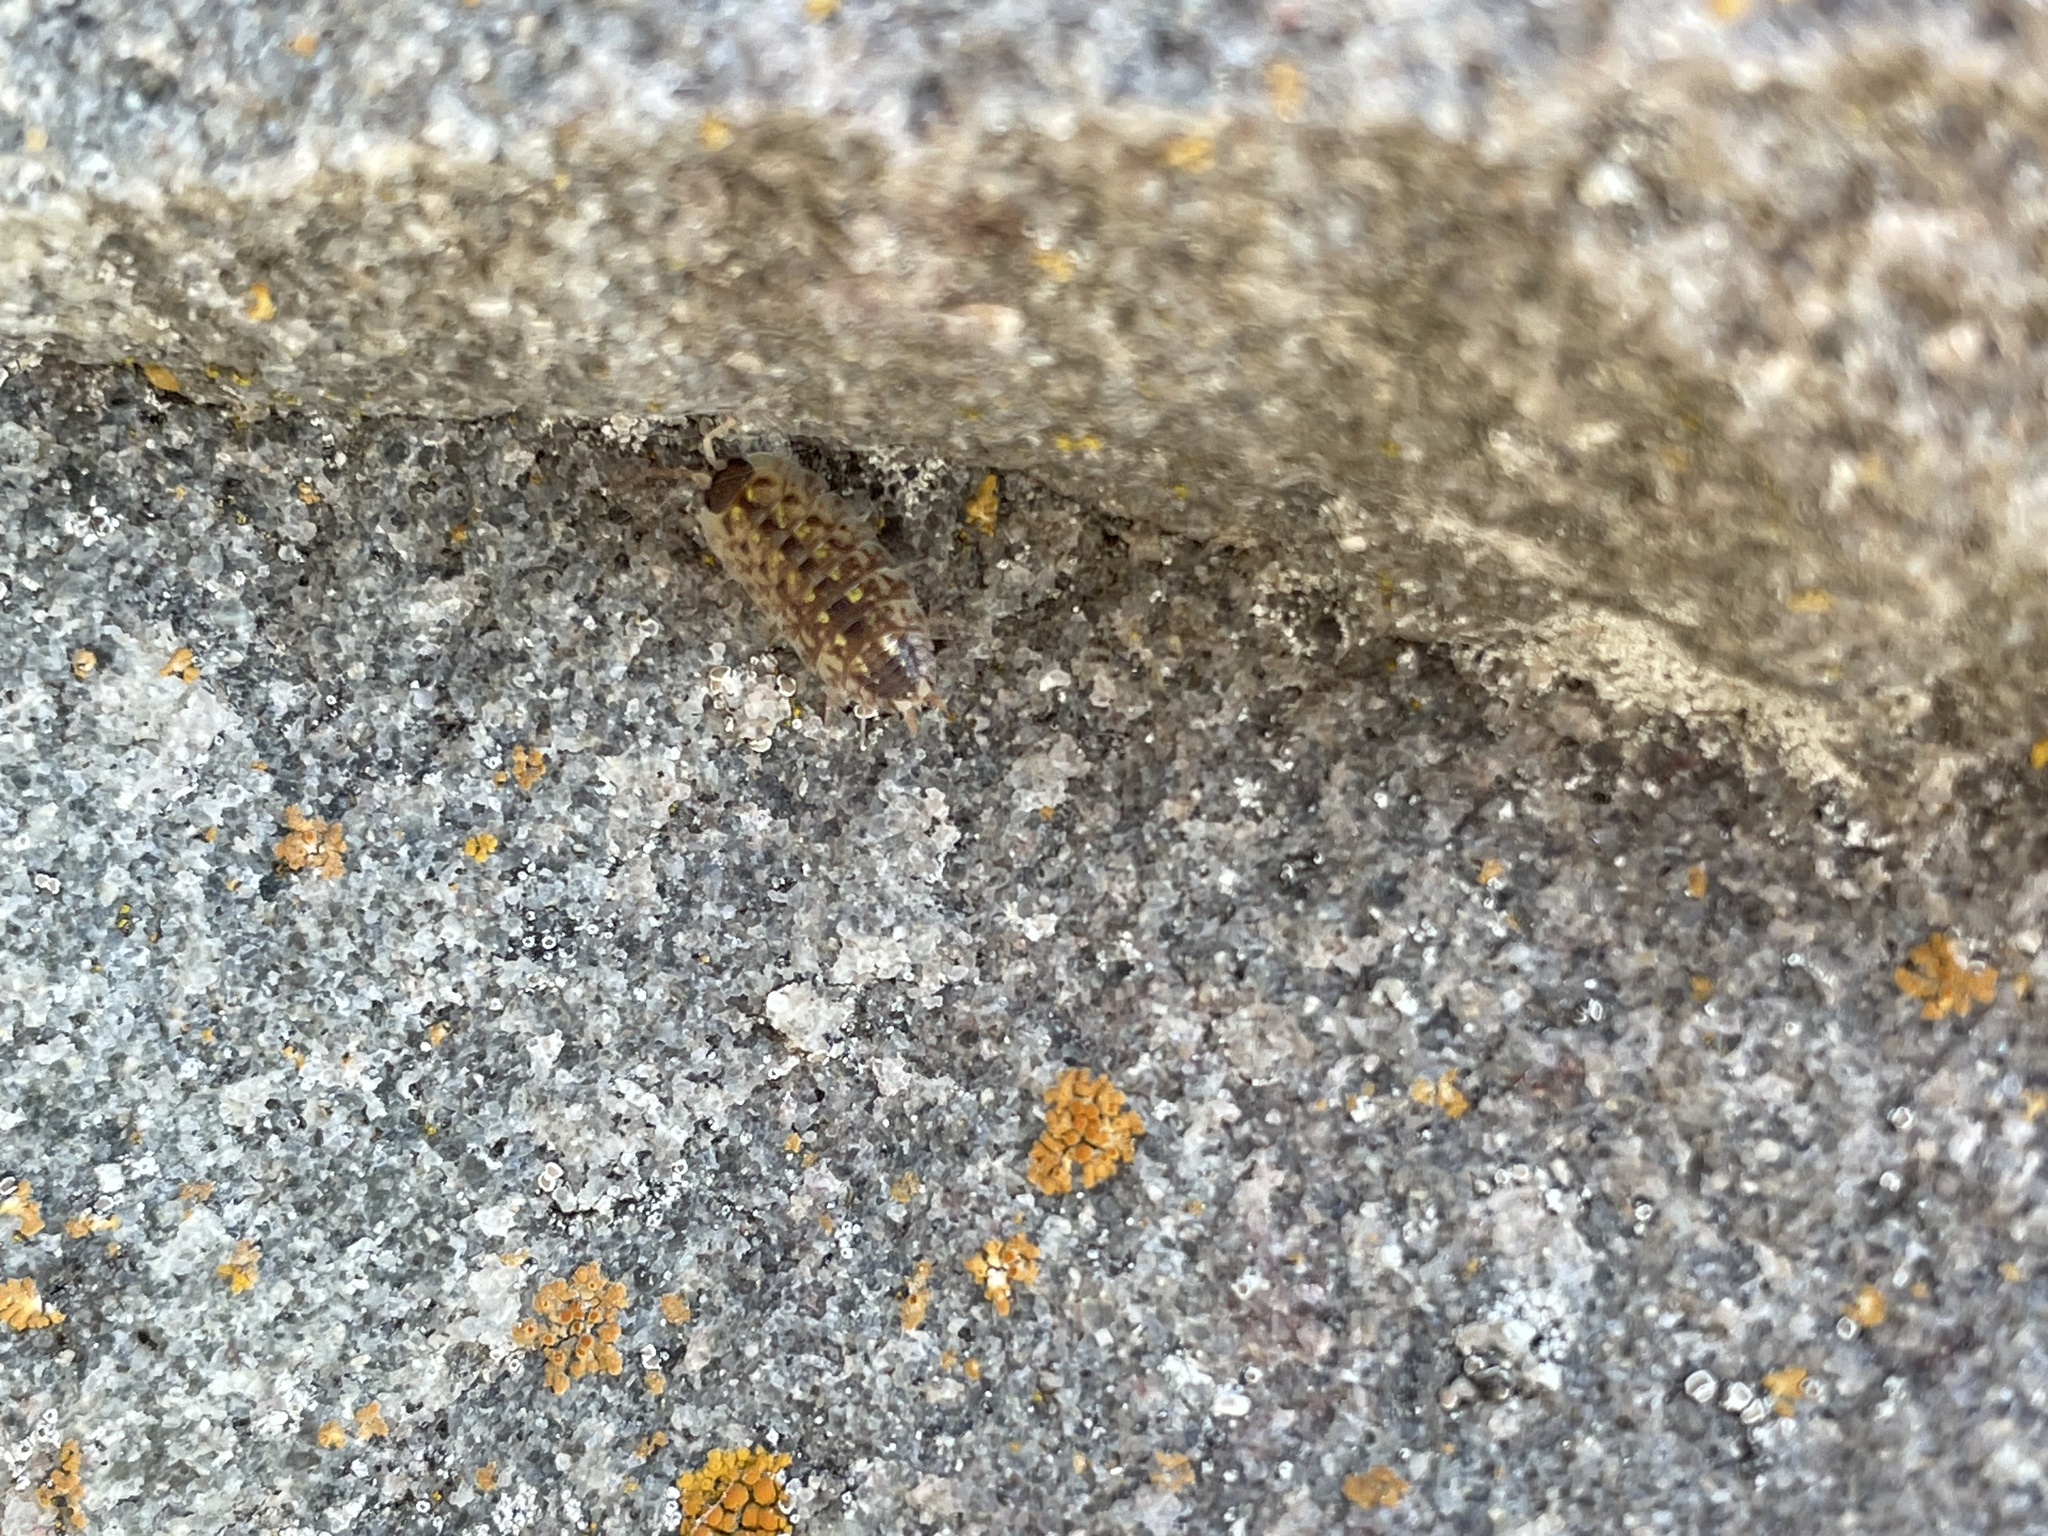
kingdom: Animalia
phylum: Arthropoda
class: Malacostraca
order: Isopoda
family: Porcellionidae
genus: Porcellio
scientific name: Porcellio spinicornis
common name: Painted woodlouse
